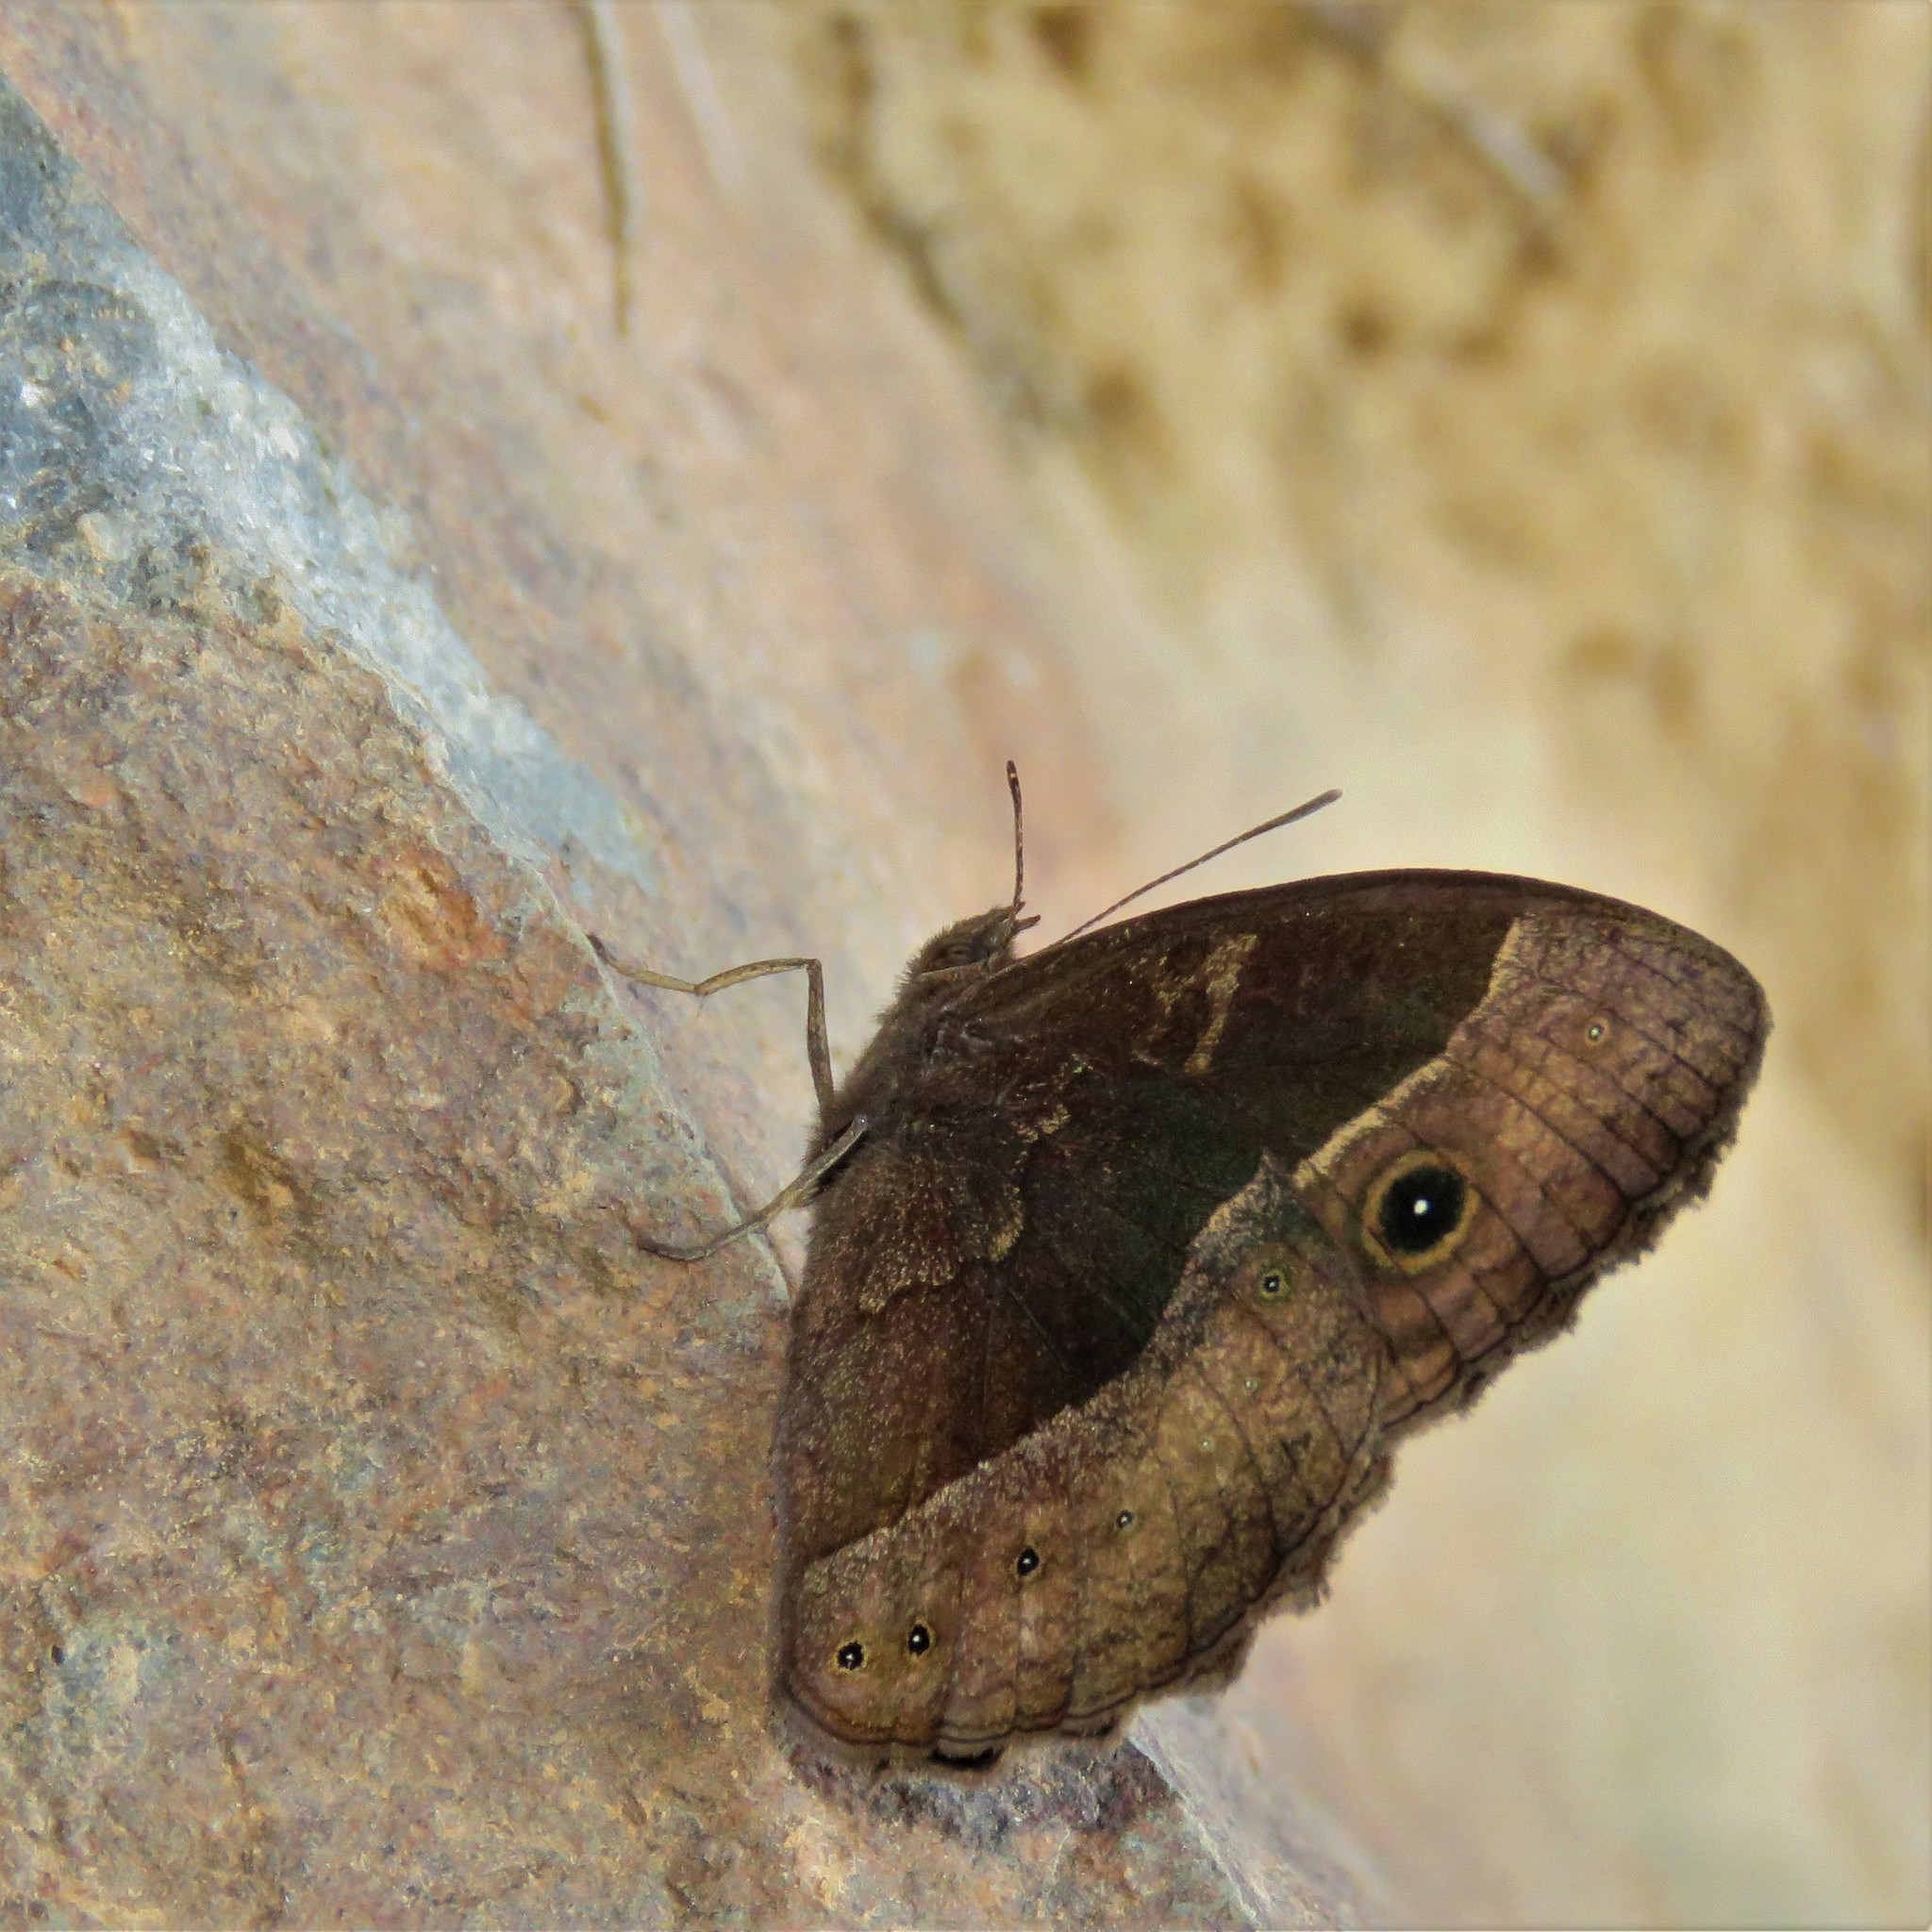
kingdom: Animalia
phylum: Arthropoda
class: Insecta
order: Lepidoptera
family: Nymphalidae
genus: Mycalesis
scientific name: Mycalesis rhacotis
